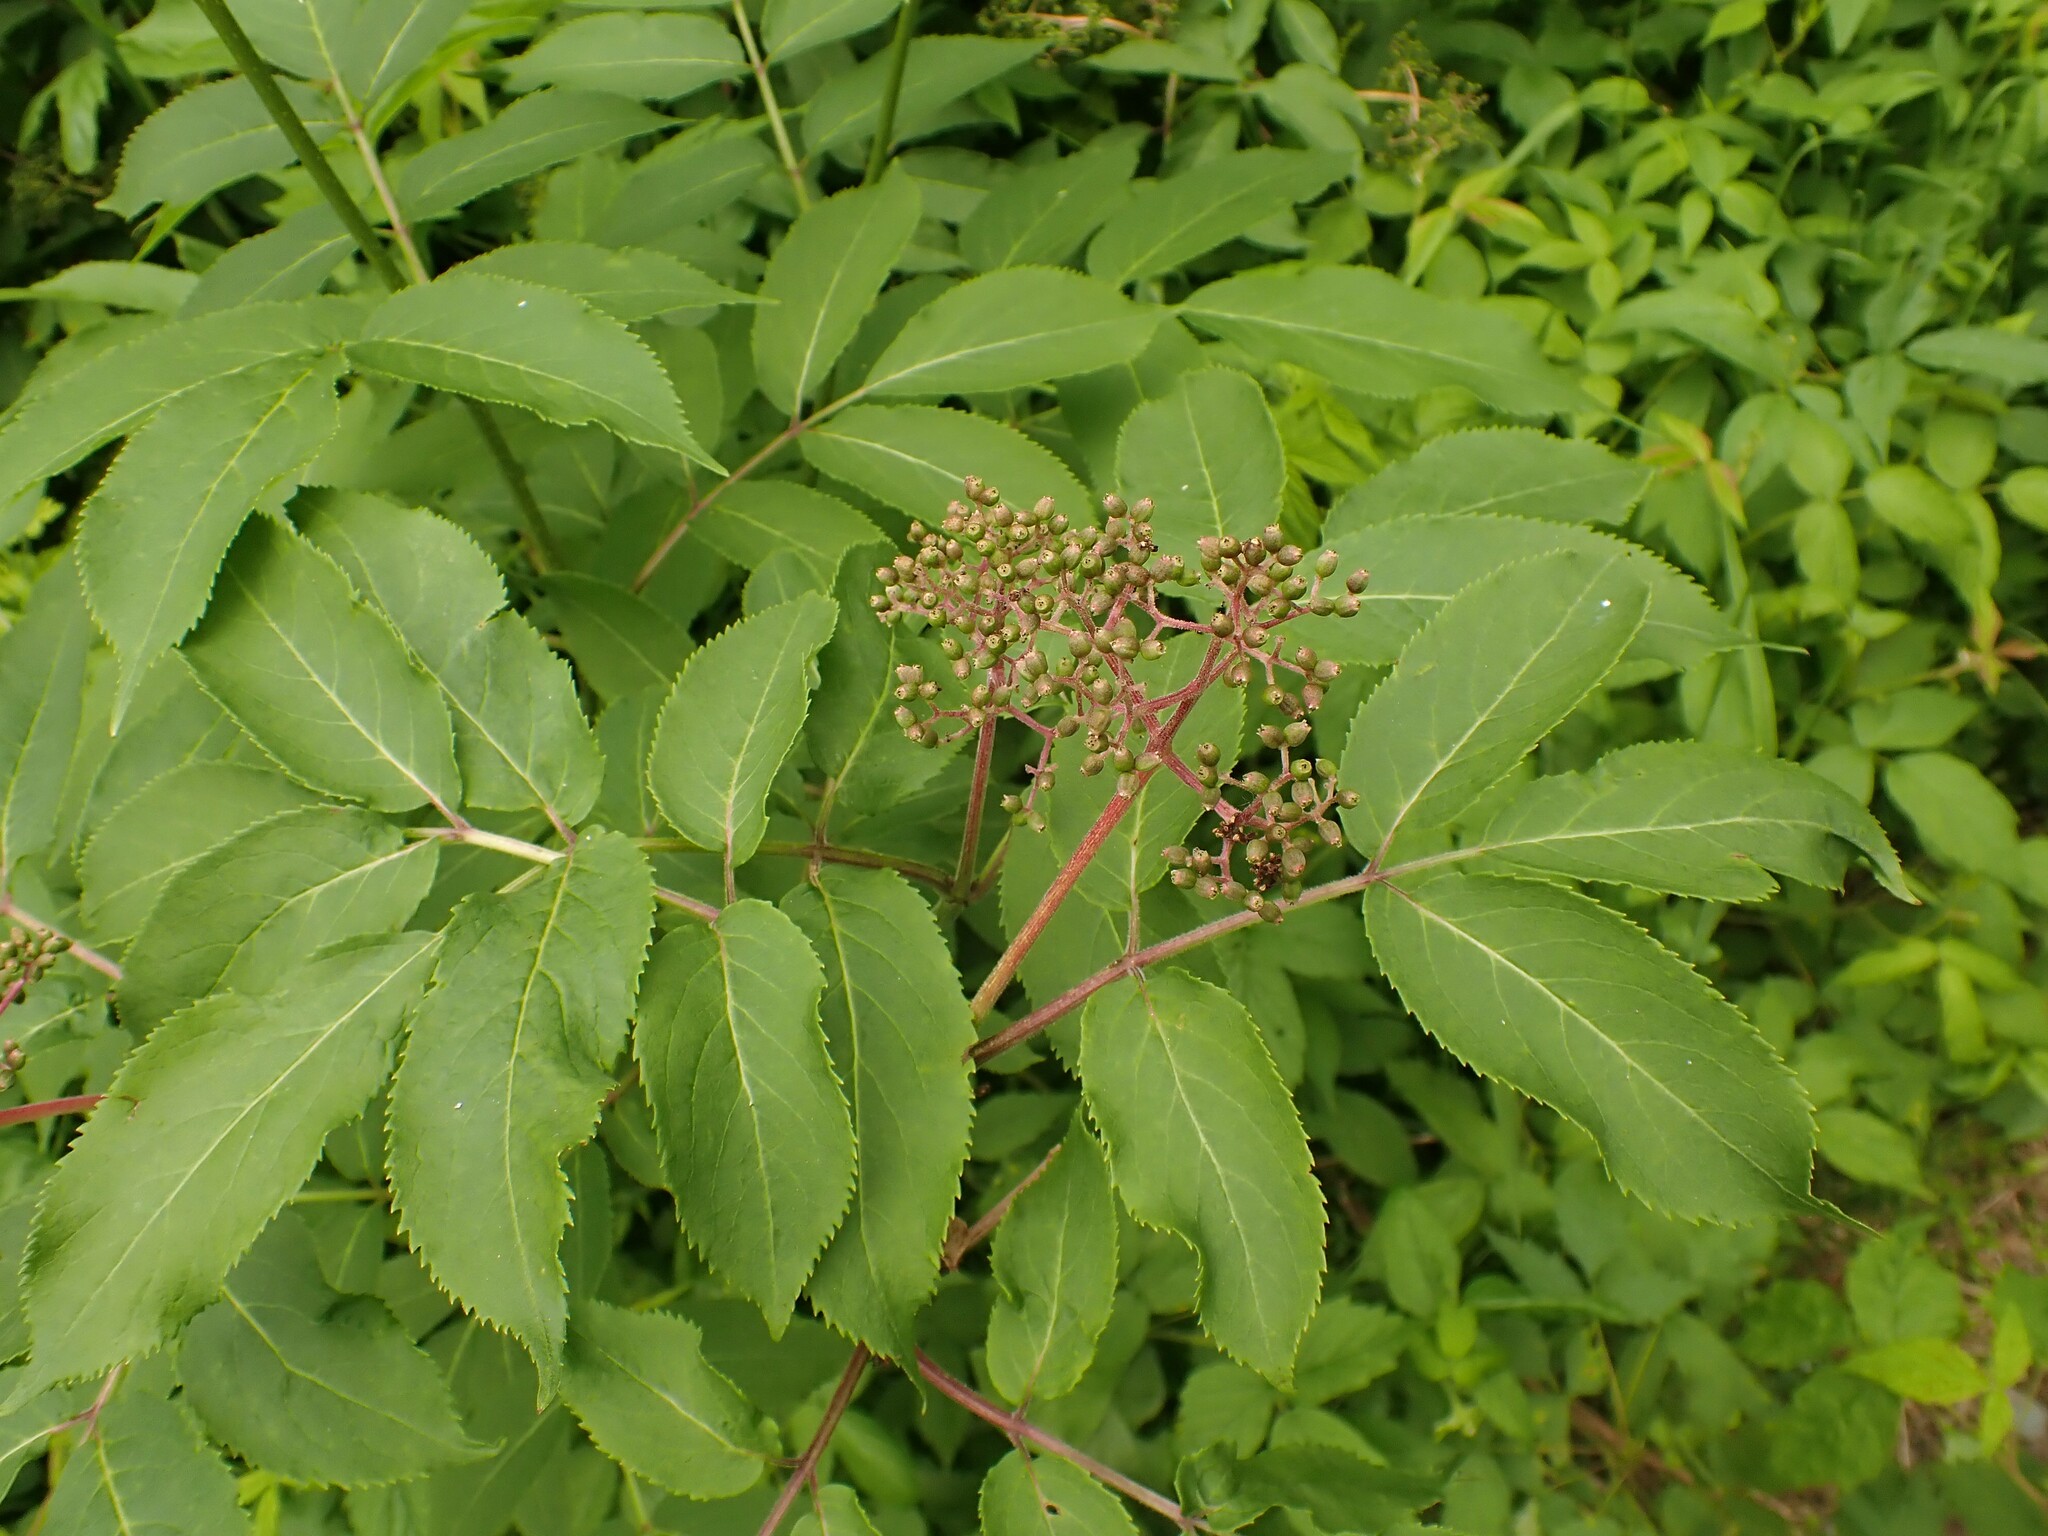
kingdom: Plantae
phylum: Tracheophyta
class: Magnoliopsida
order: Dipsacales
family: Viburnaceae
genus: Sambucus
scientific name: Sambucus racemosa
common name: Red-berried elder
